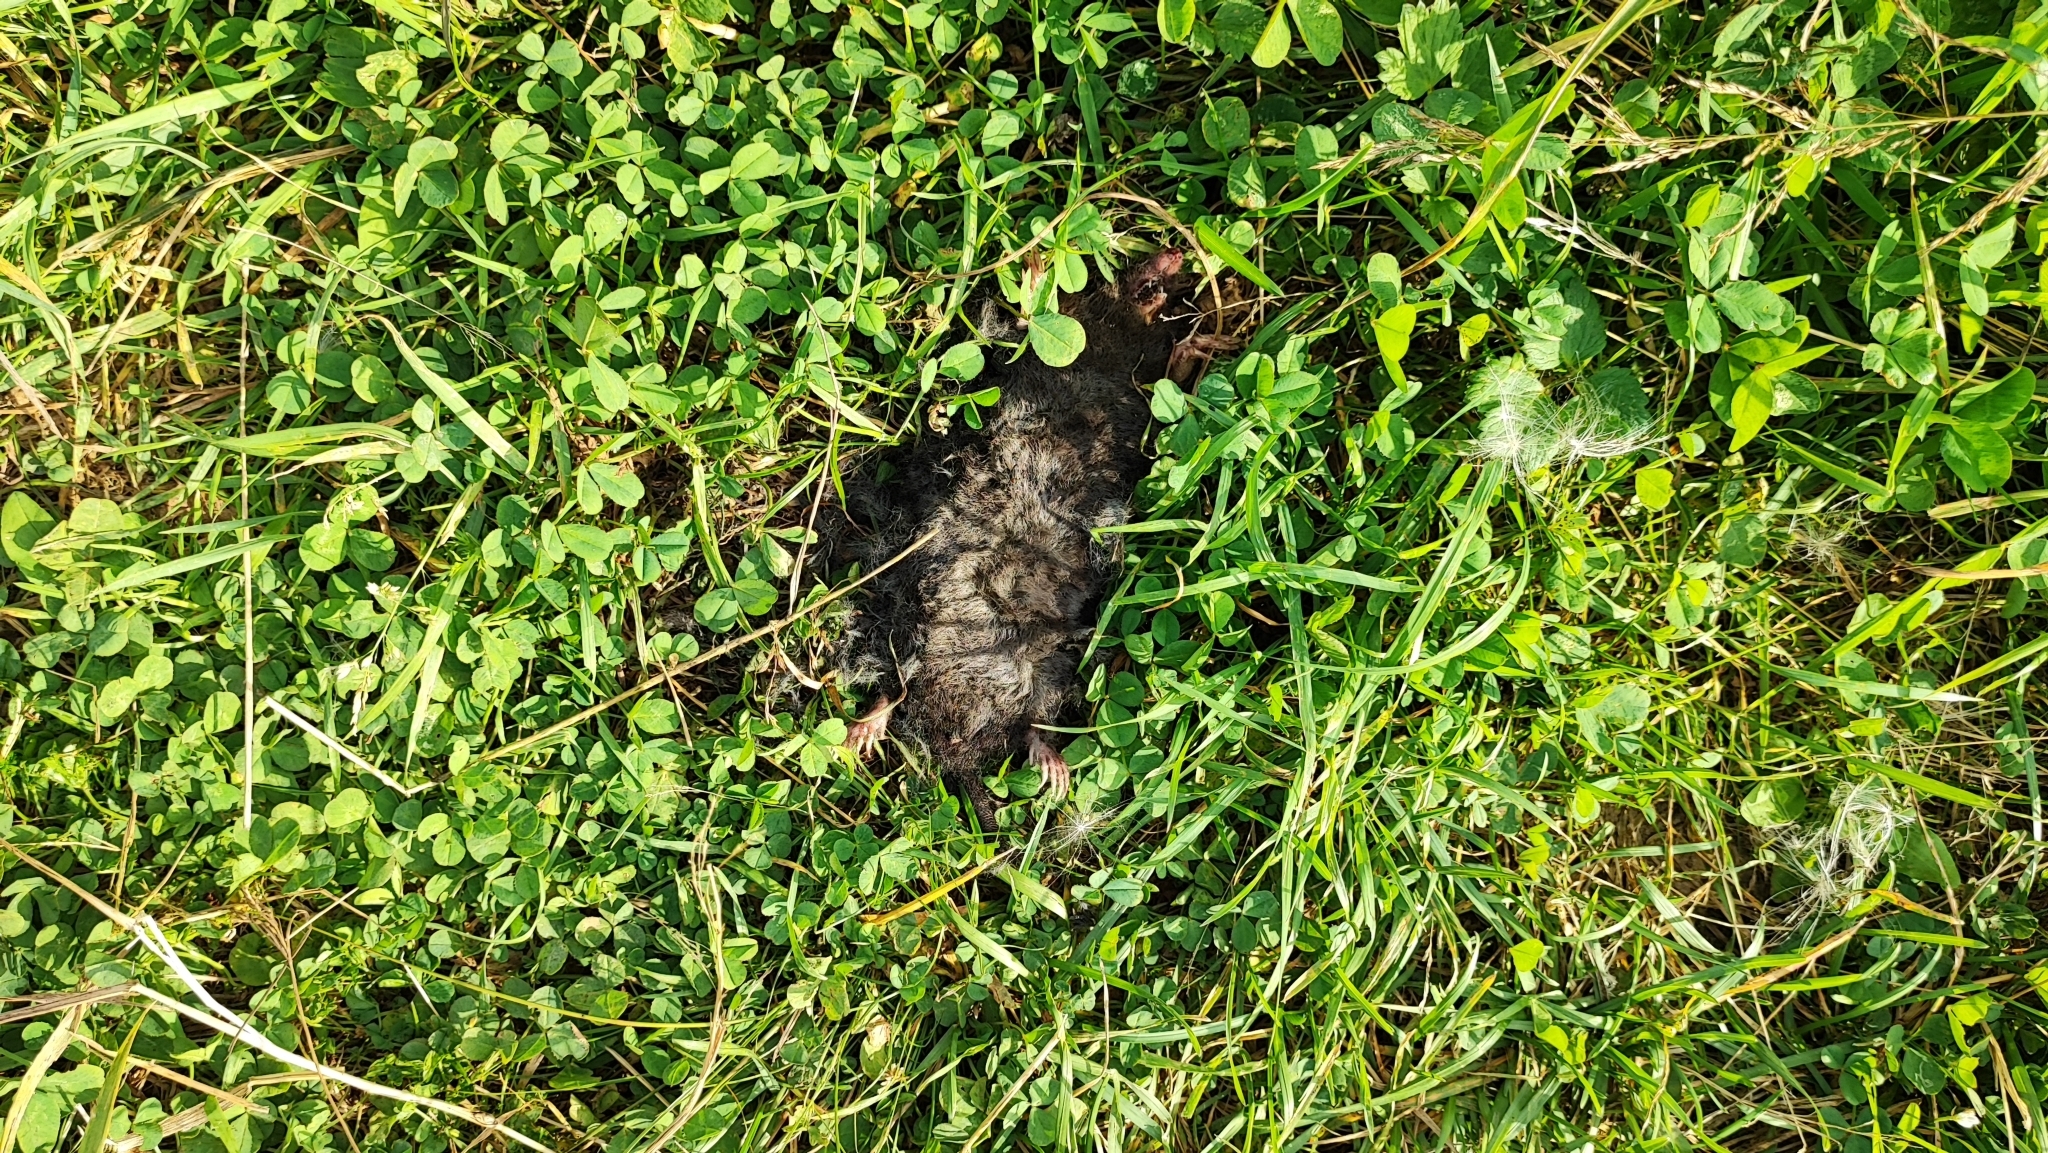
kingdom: Animalia
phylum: Chordata
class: Mammalia
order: Soricomorpha
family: Talpidae
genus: Talpa
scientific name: Talpa europaea
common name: European mole
